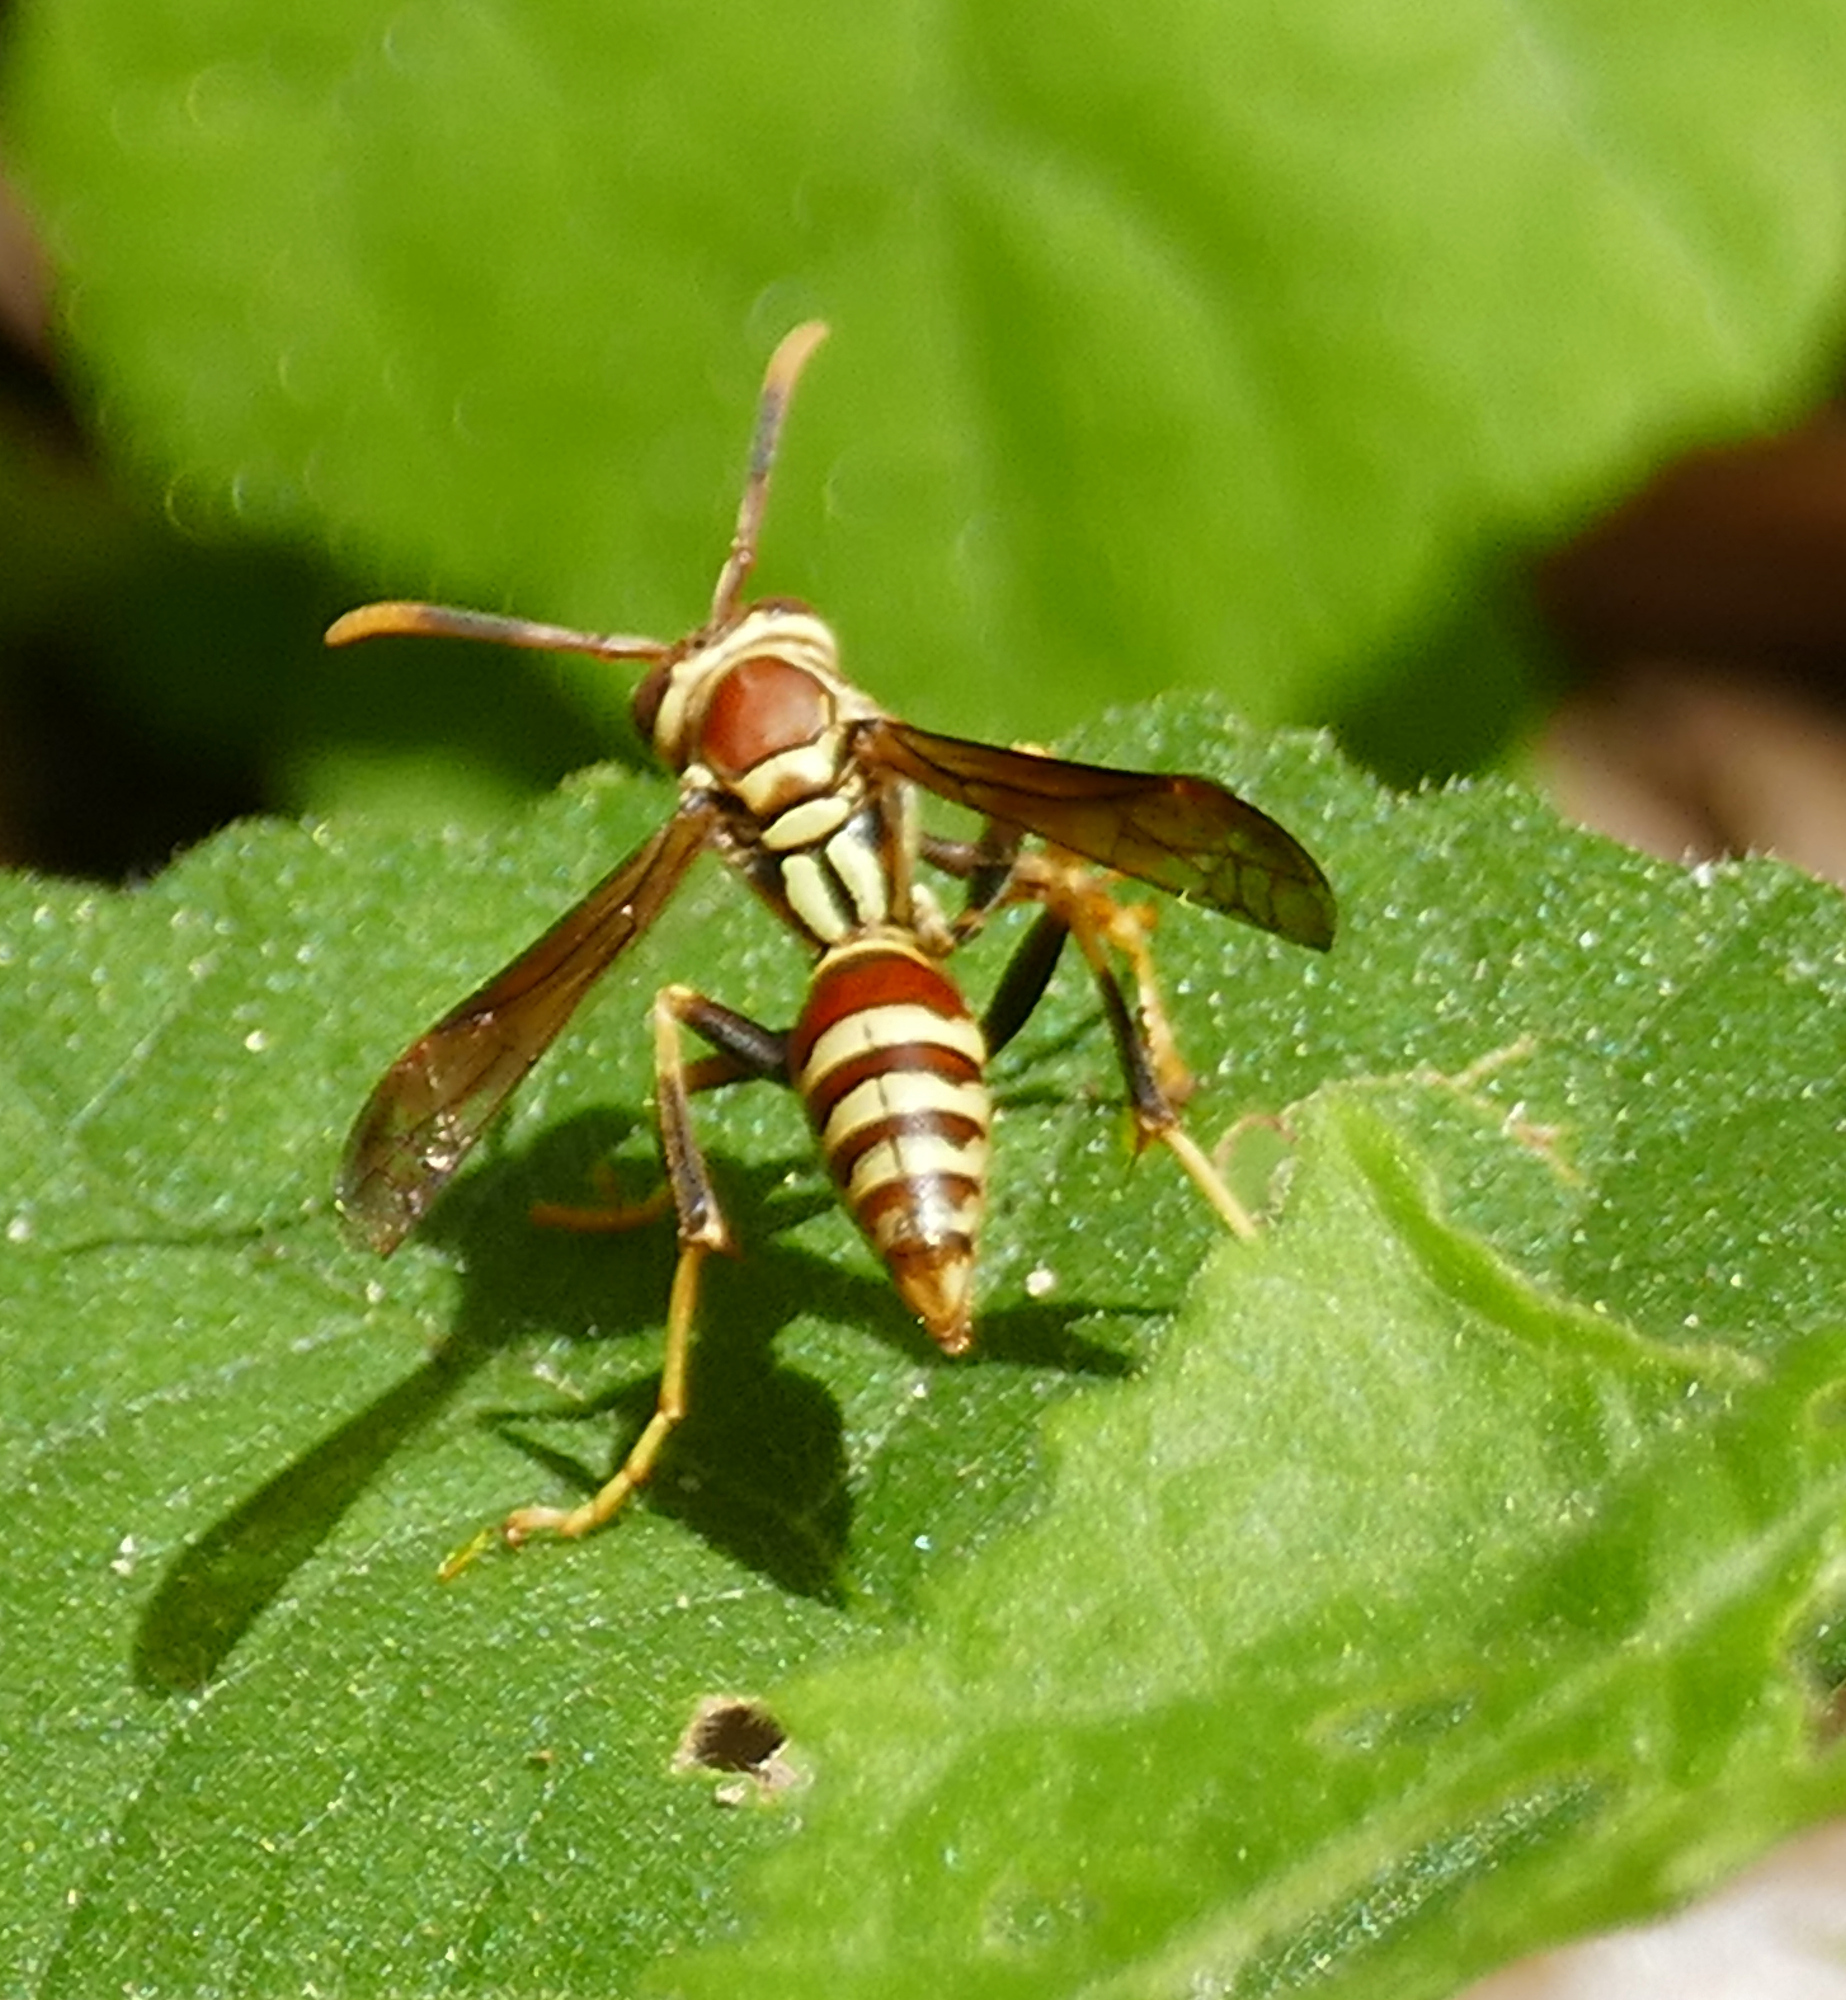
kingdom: Animalia
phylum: Arthropoda
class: Insecta
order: Hymenoptera
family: Eumenidae
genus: Polistes
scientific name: Polistes exclamans
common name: Paper wasp
